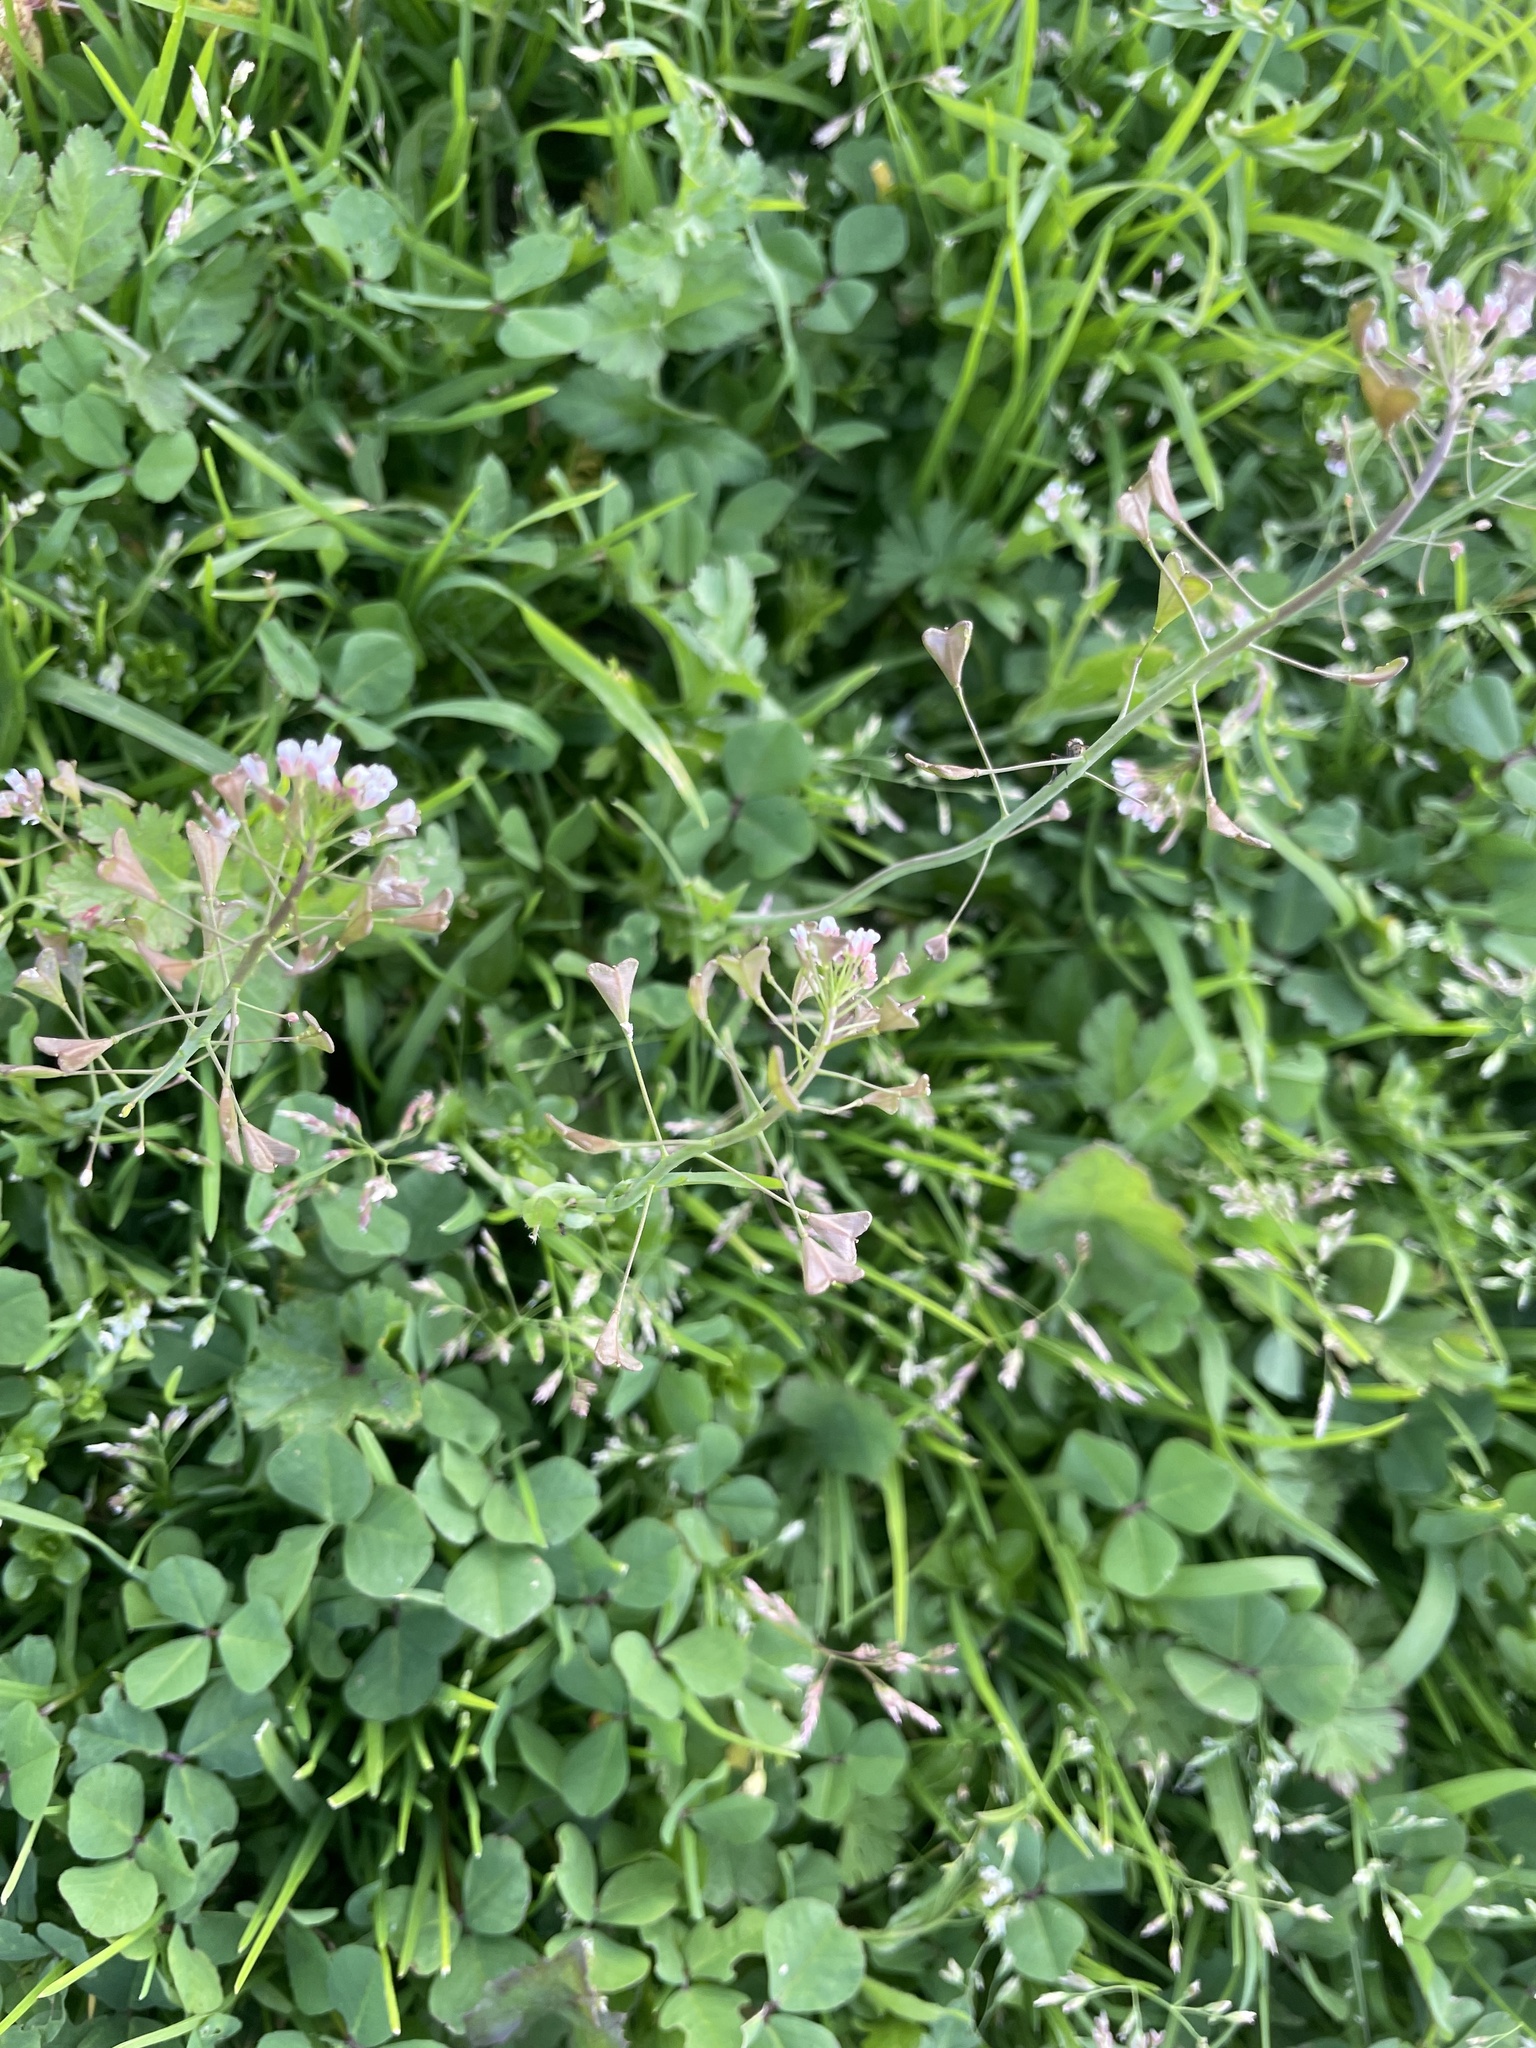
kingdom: Plantae
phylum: Tracheophyta
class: Magnoliopsida
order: Brassicales
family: Brassicaceae
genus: Capsella
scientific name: Capsella bursa-pastoris
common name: Shepherd's purse
